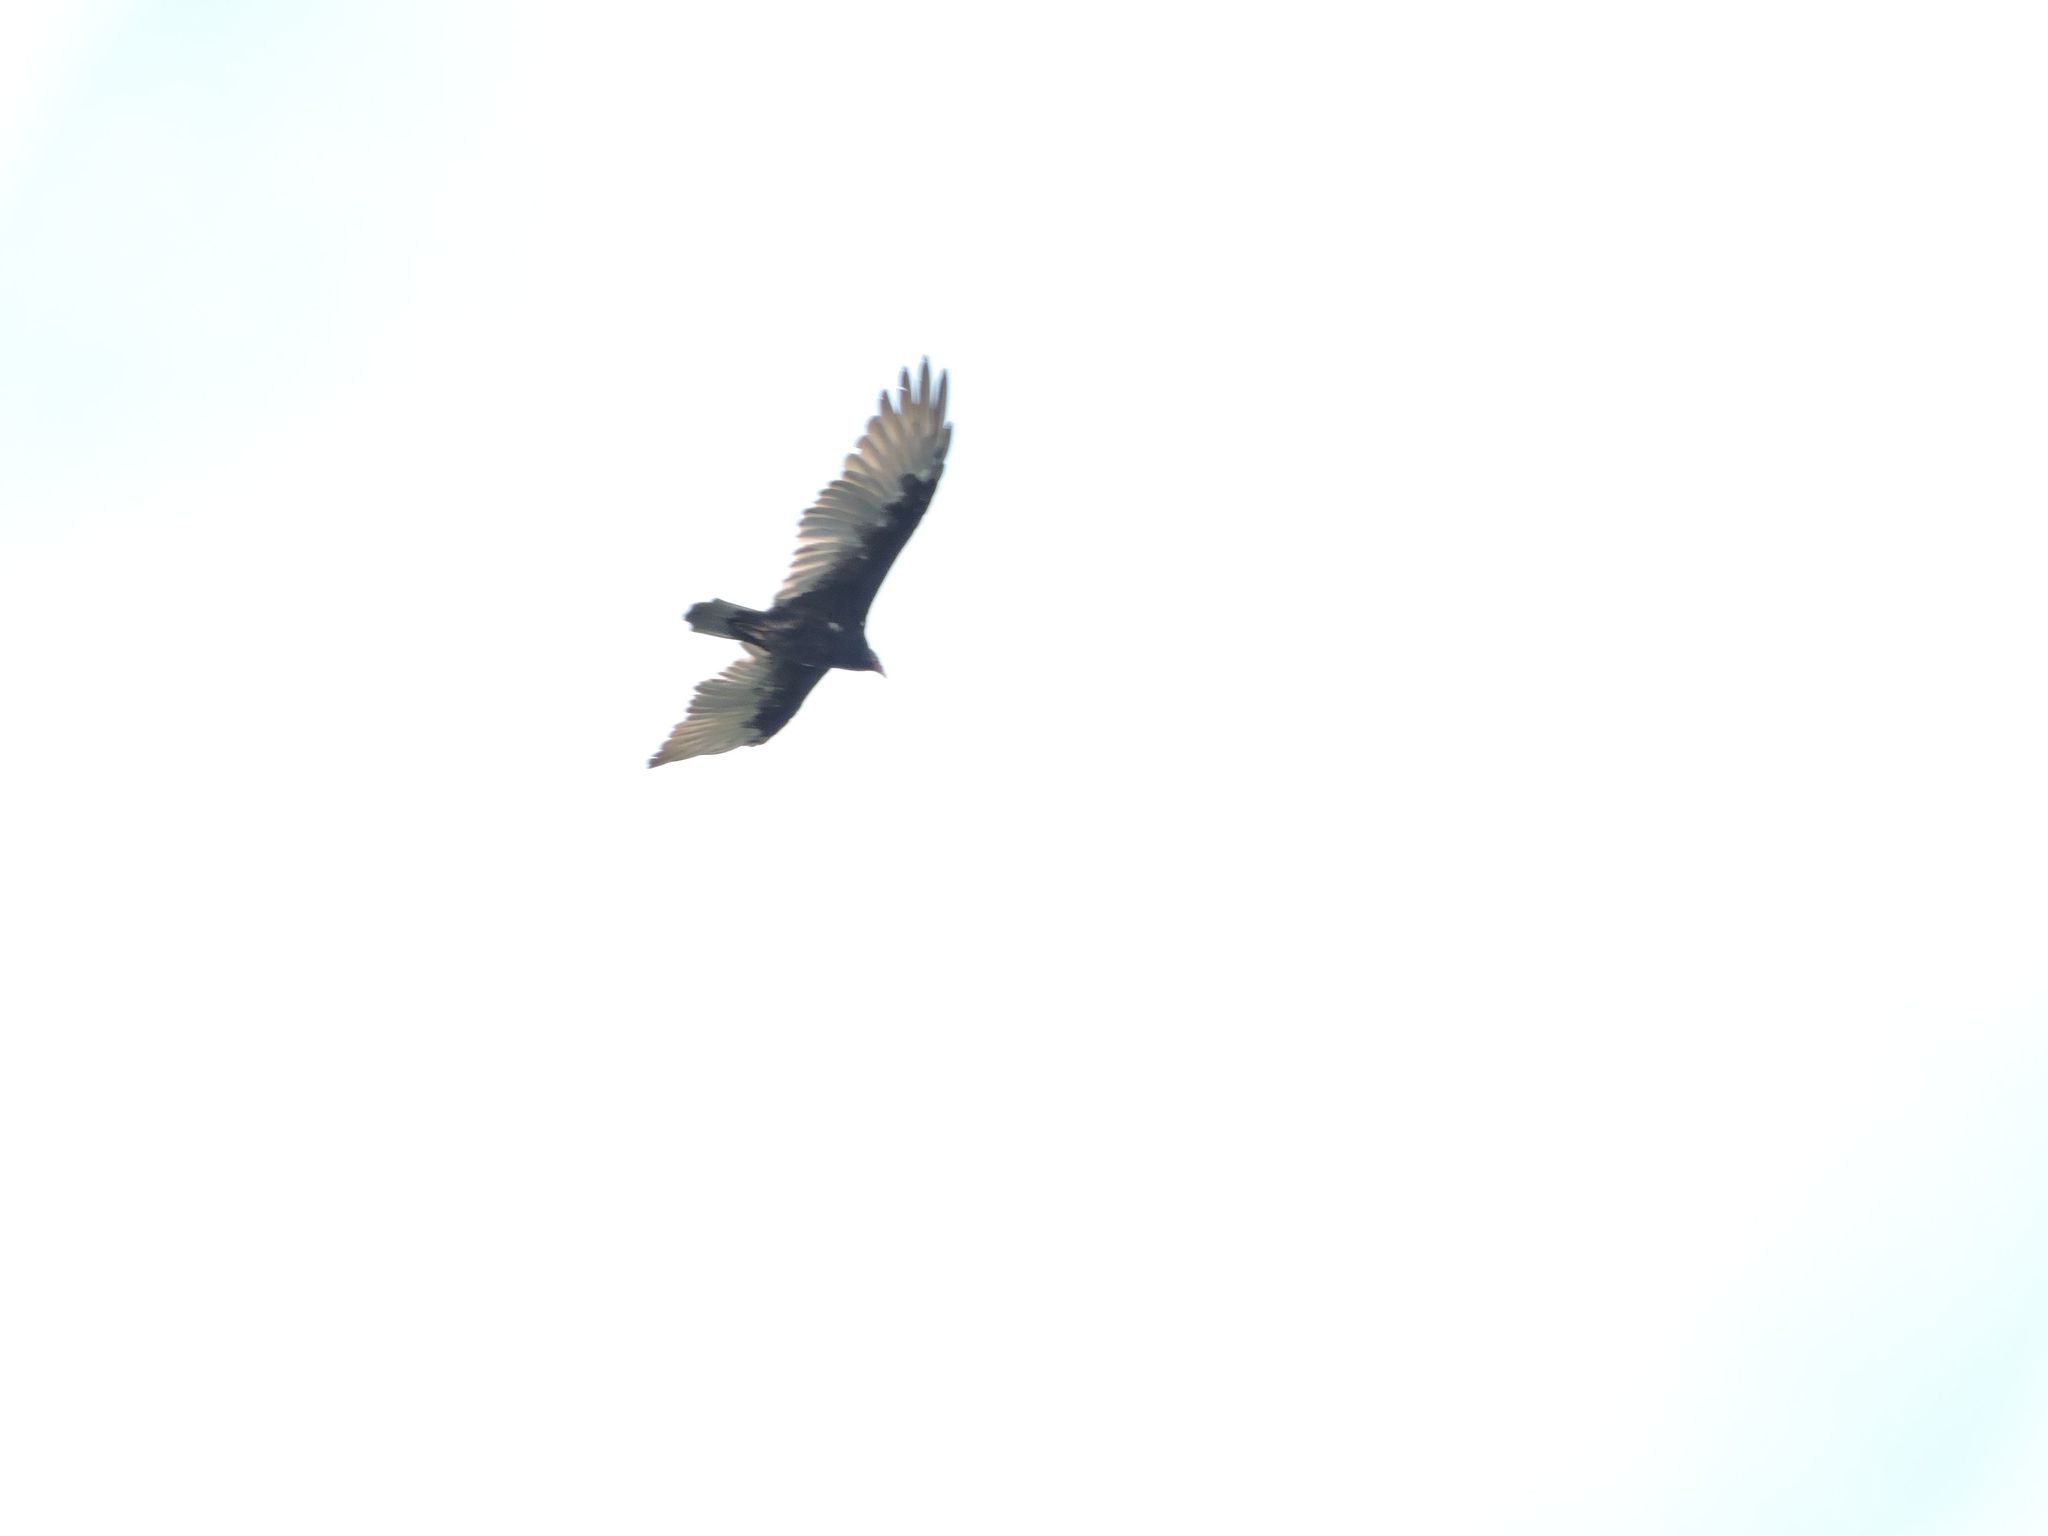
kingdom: Animalia
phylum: Chordata
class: Aves
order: Accipitriformes
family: Cathartidae
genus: Cathartes
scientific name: Cathartes aura
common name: Turkey vulture
